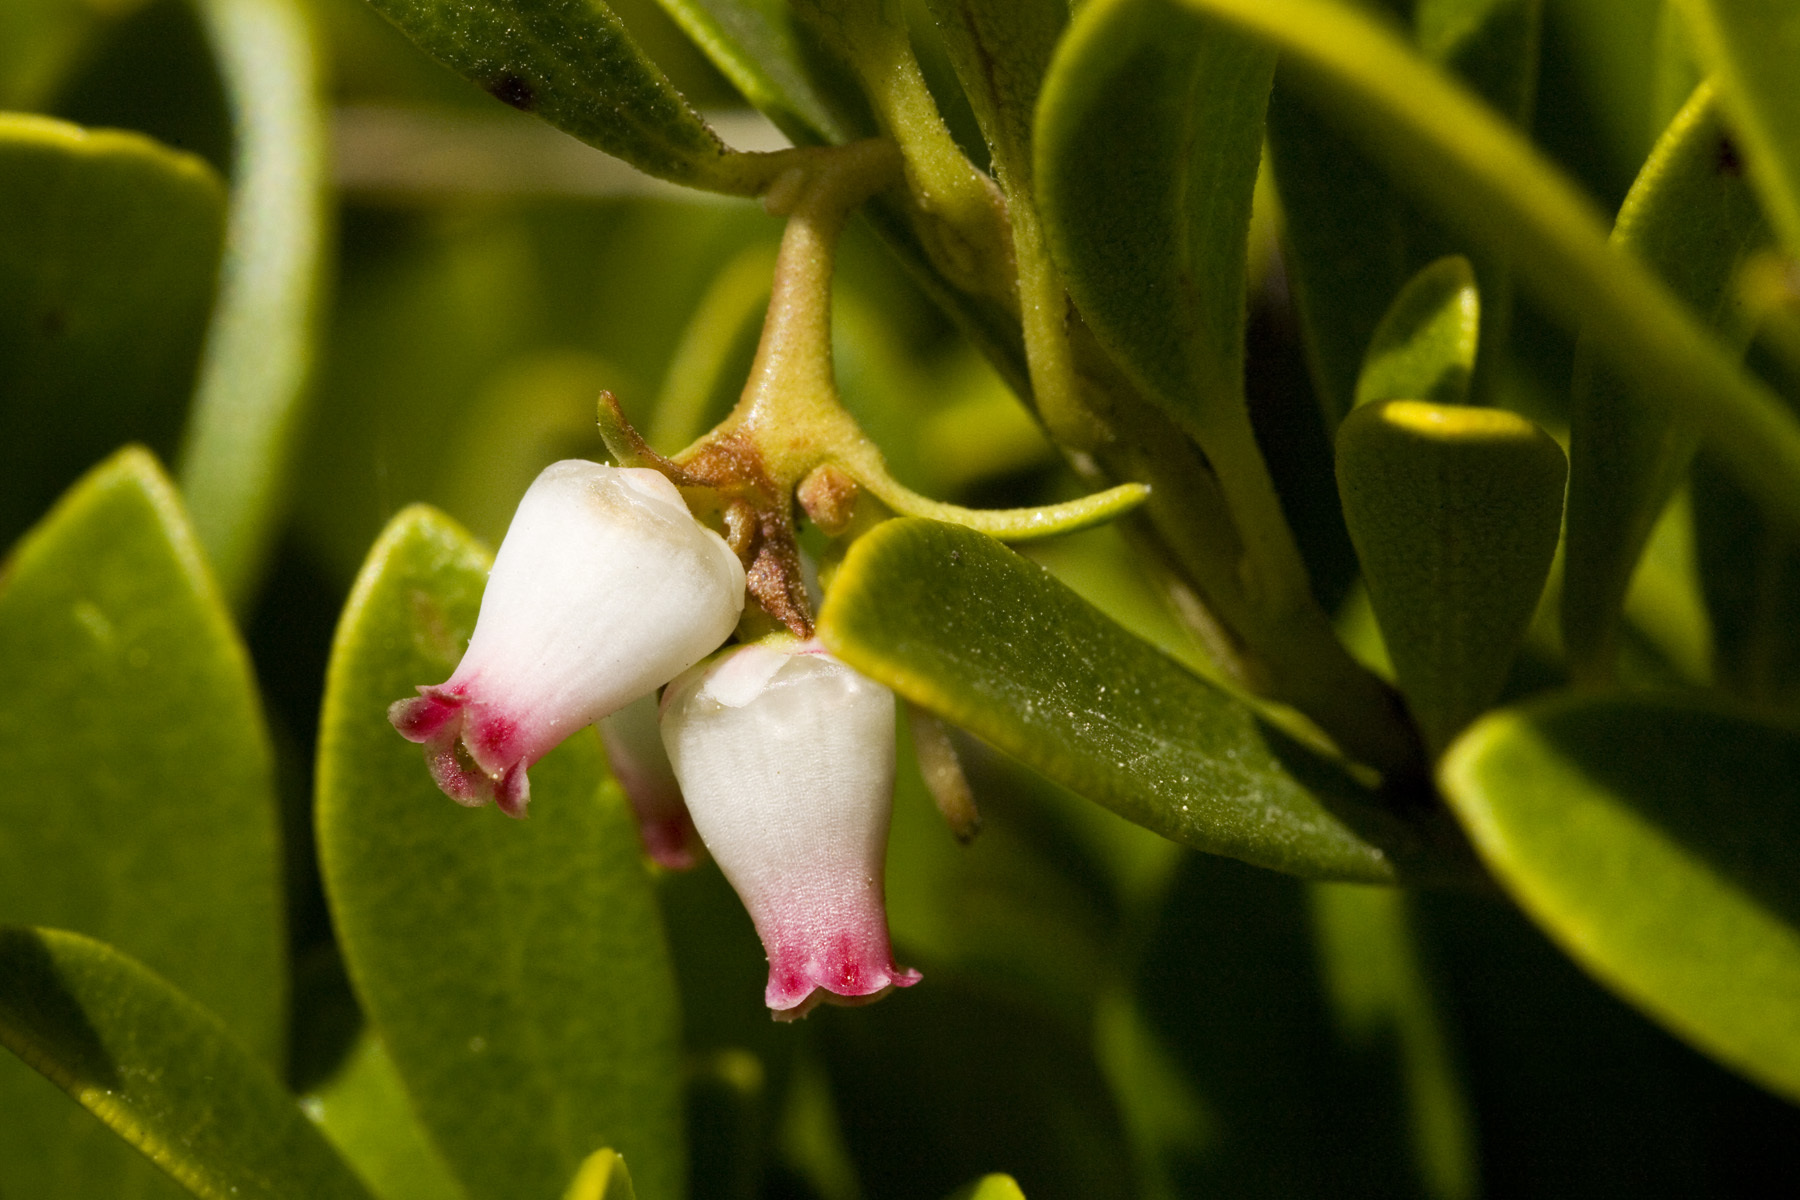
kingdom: Plantae
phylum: Tracheophyta
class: Magnoliopsida
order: Ericales
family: Ericaceae
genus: Arctostaphylos
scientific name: Arctostaphylos uva-ursi
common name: Bearberry
